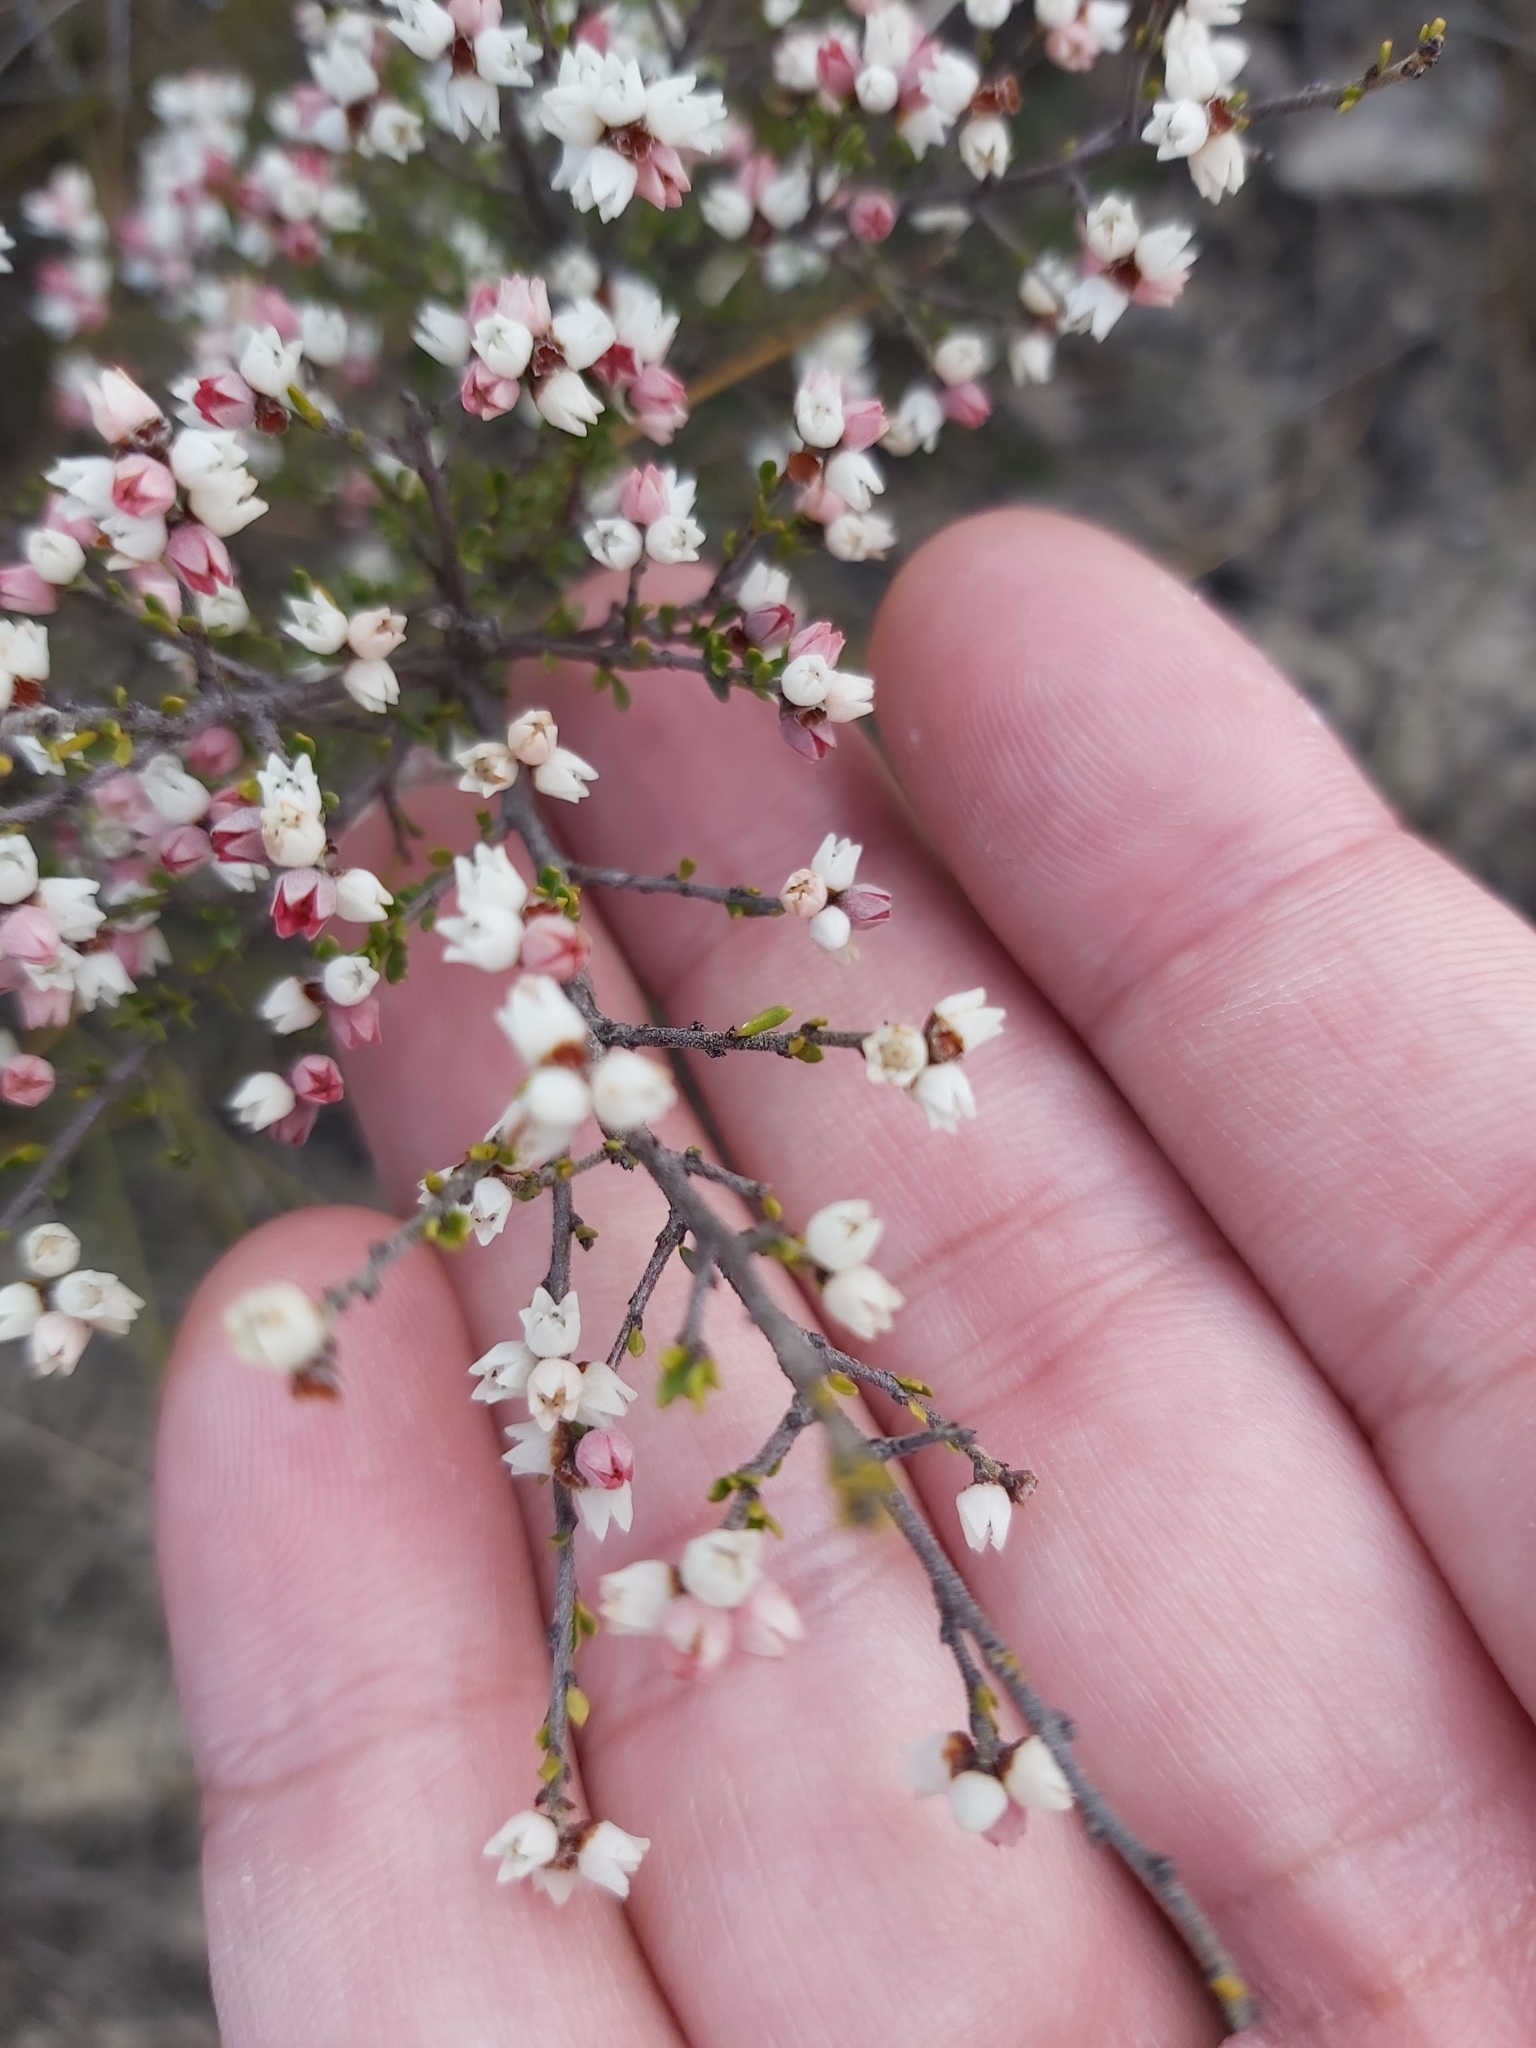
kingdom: Plantae
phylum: Tracheophyta
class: Magnoliopsida
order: Rosales
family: Rhamnaceae
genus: Cryptandra
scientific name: Cryptandra amara
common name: Bitter cryptandra
